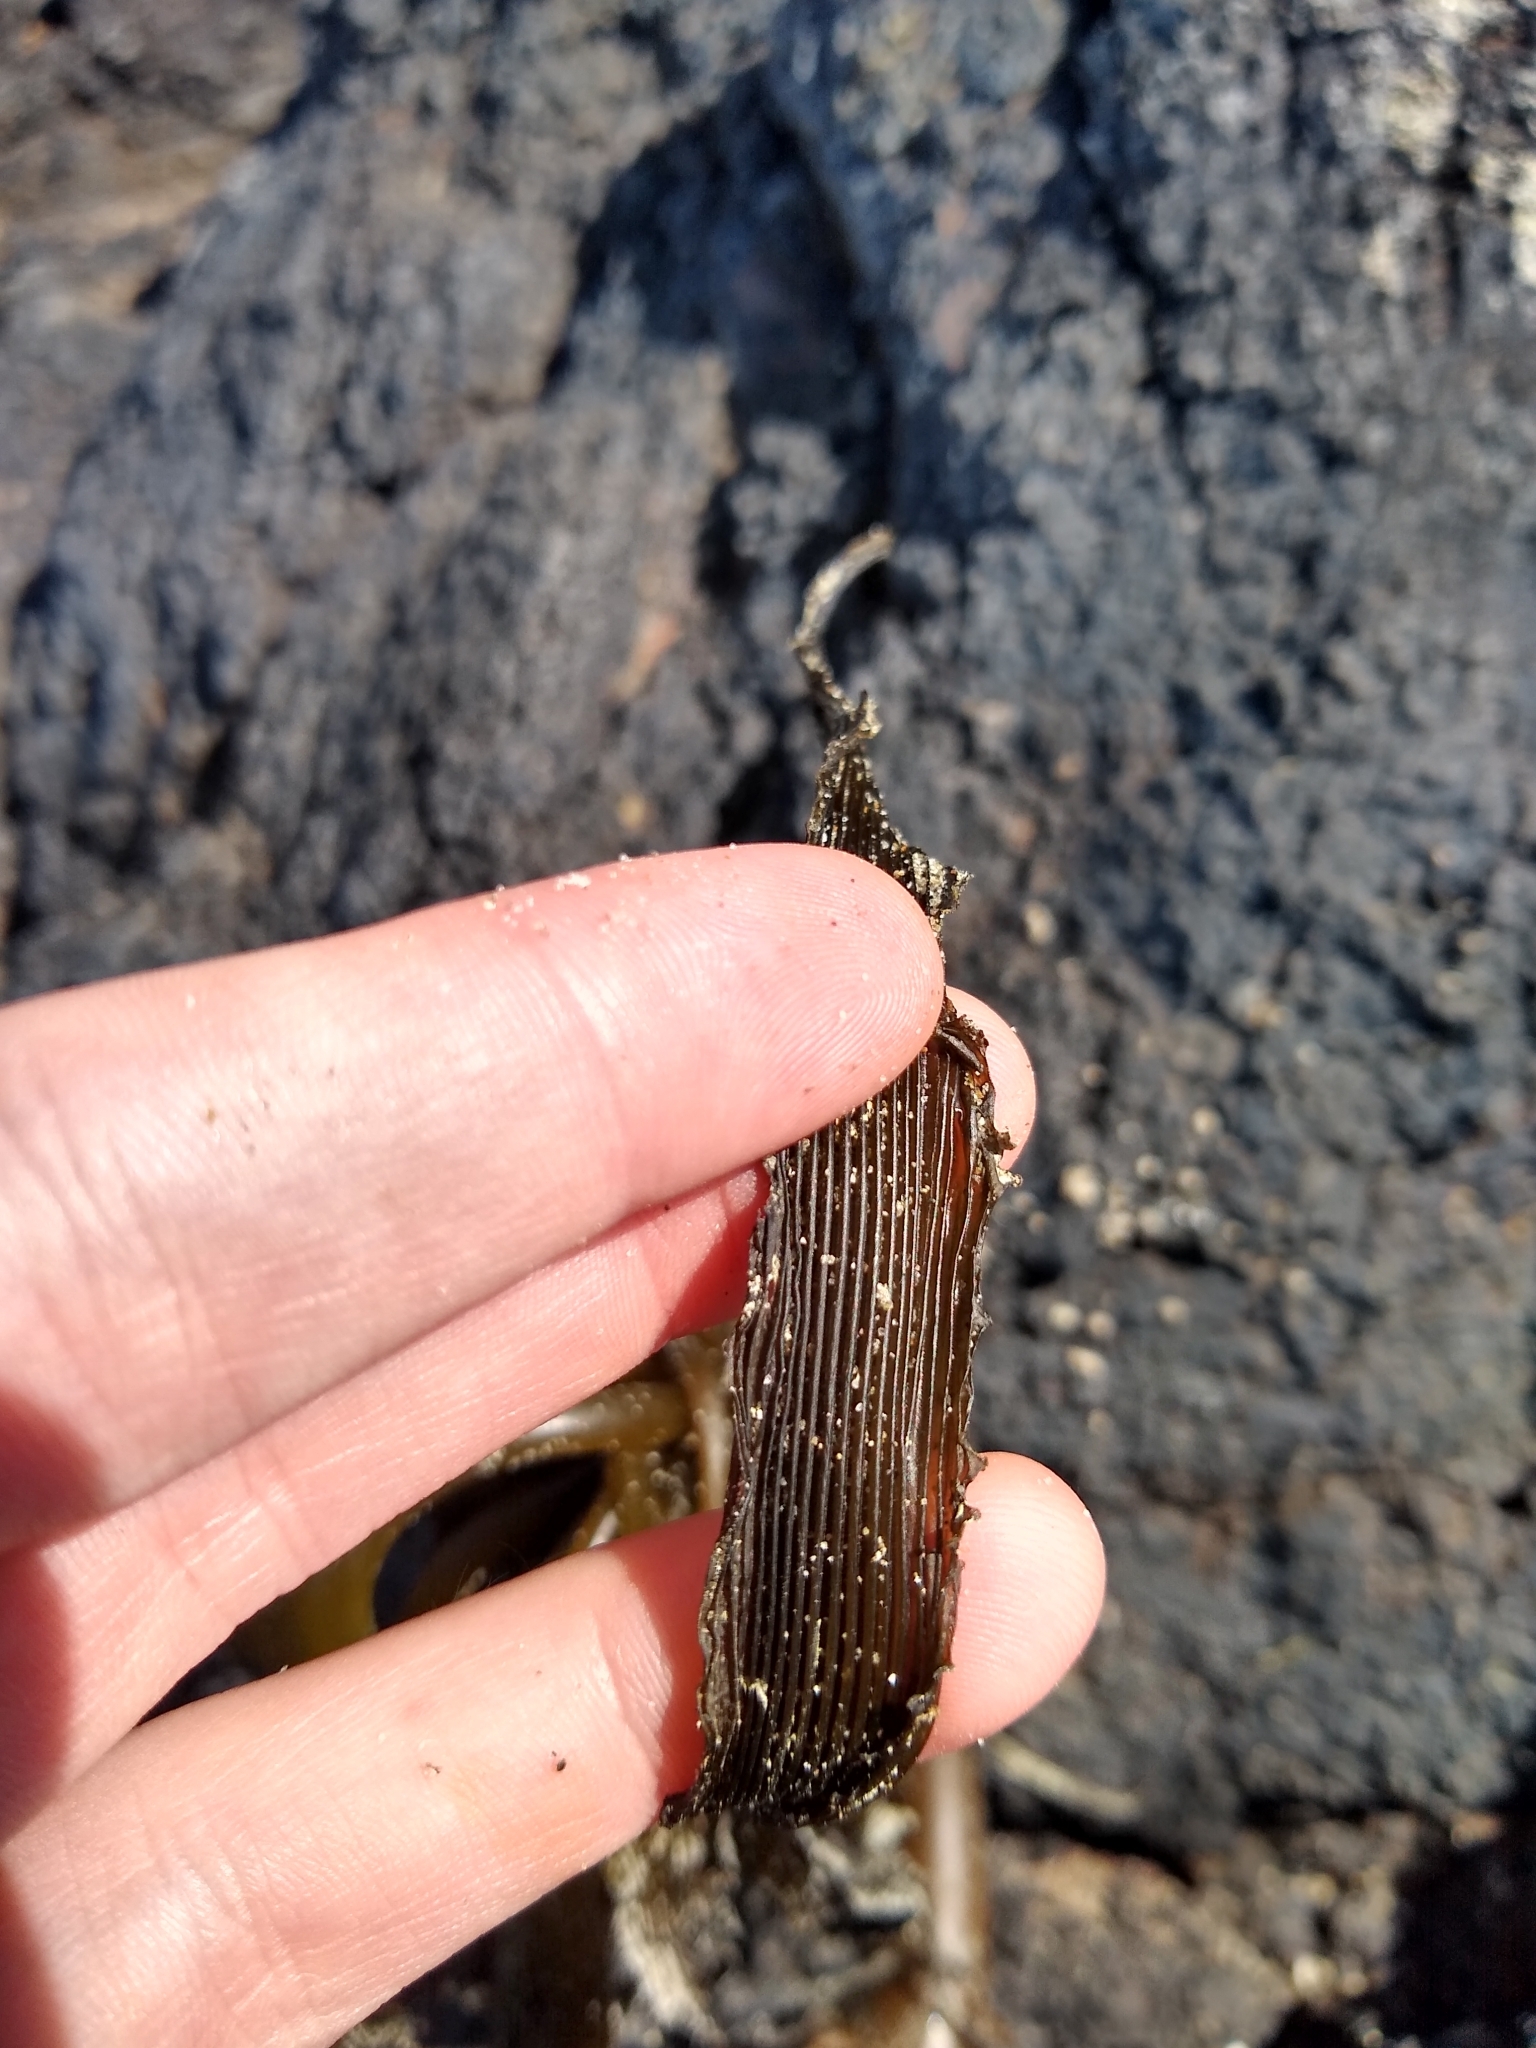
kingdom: Chromista
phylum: Ochrophyta
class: Phaeophyceae
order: Laminariales
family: Laminariaceae
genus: Postelsia
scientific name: Postelsia palmiformis
